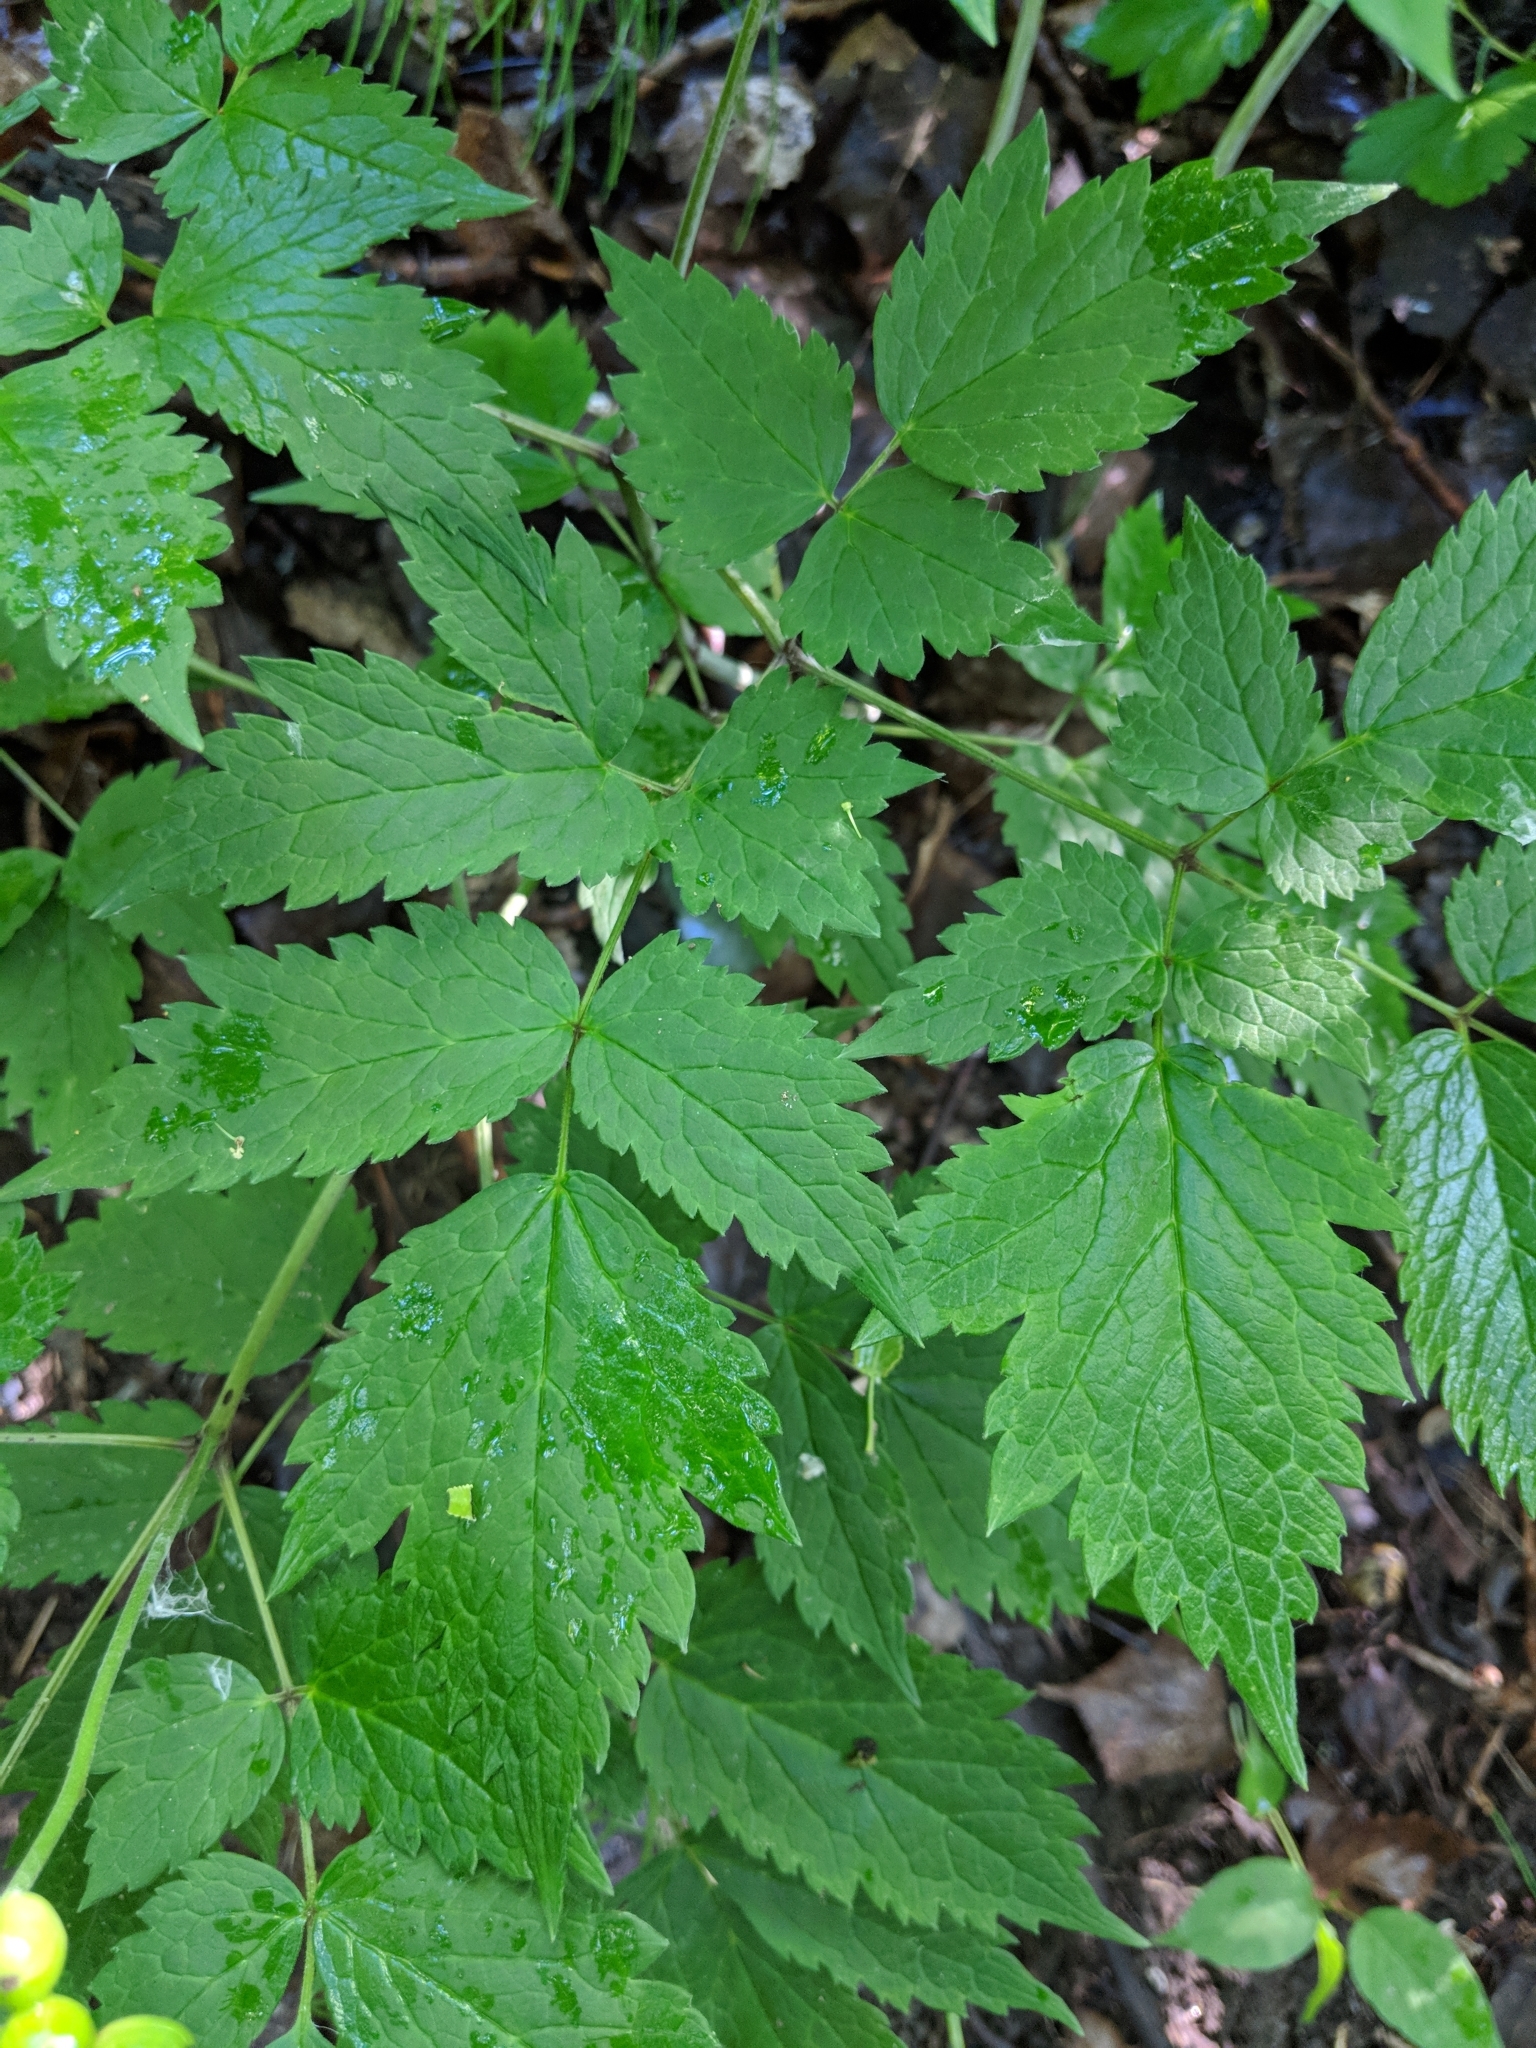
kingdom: Plantae
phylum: Tracheophyta
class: Magnoliopsida
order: Ranunculales
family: Ranunculaceae
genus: Actaea
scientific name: Actaea rubra
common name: Red baneberry
